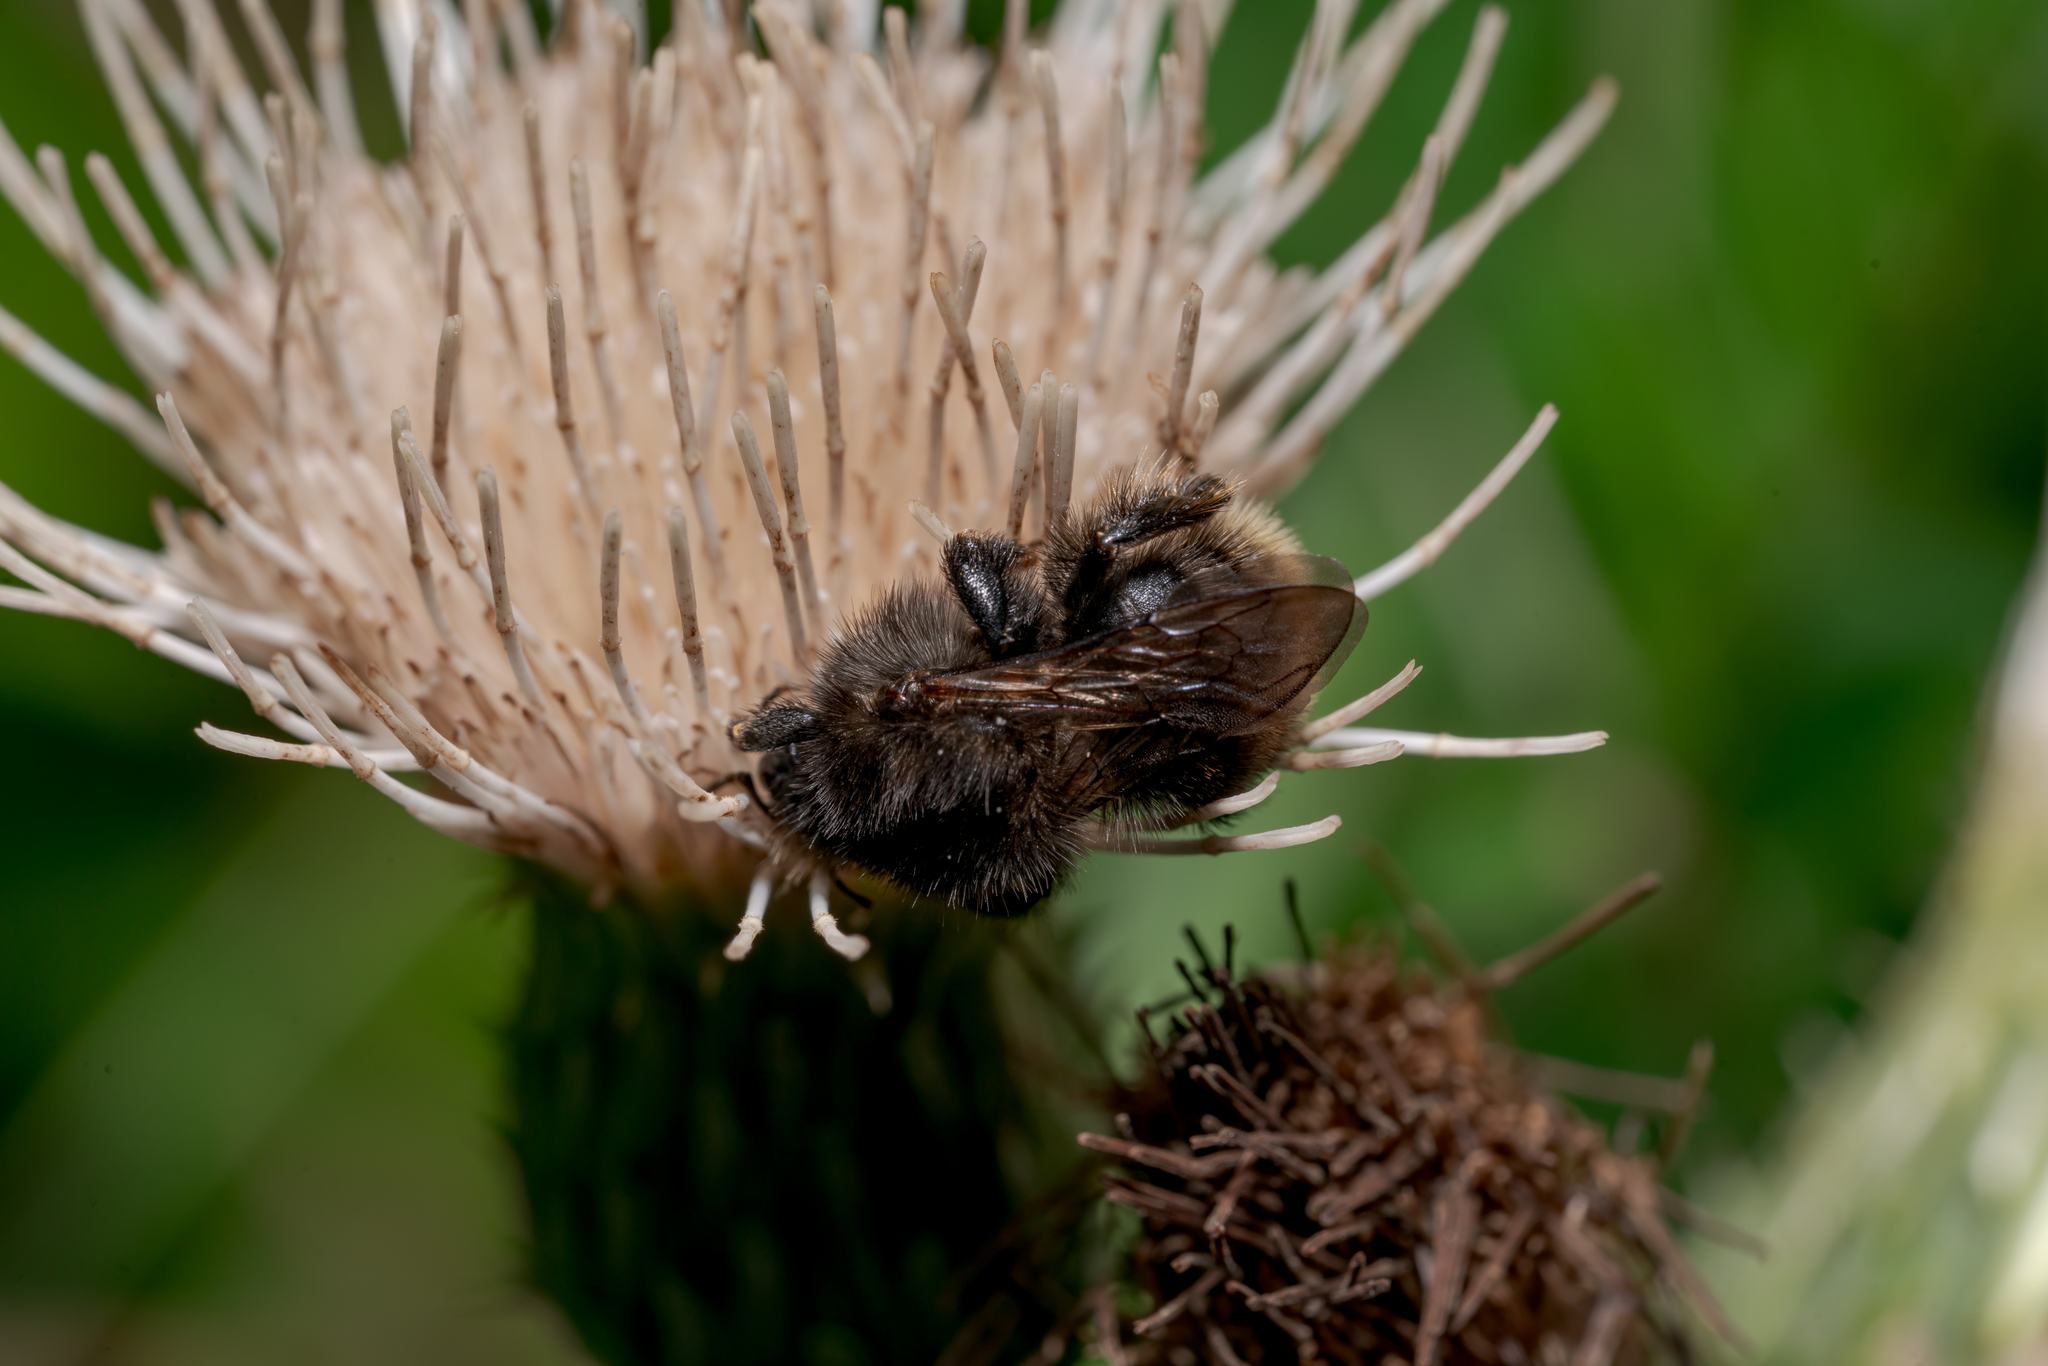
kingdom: Animalia
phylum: Arthropoda
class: Insecta
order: Hymenoptera
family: Apidae
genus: Bombus
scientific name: Bombus humilis
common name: Brown-banded carder-bee
